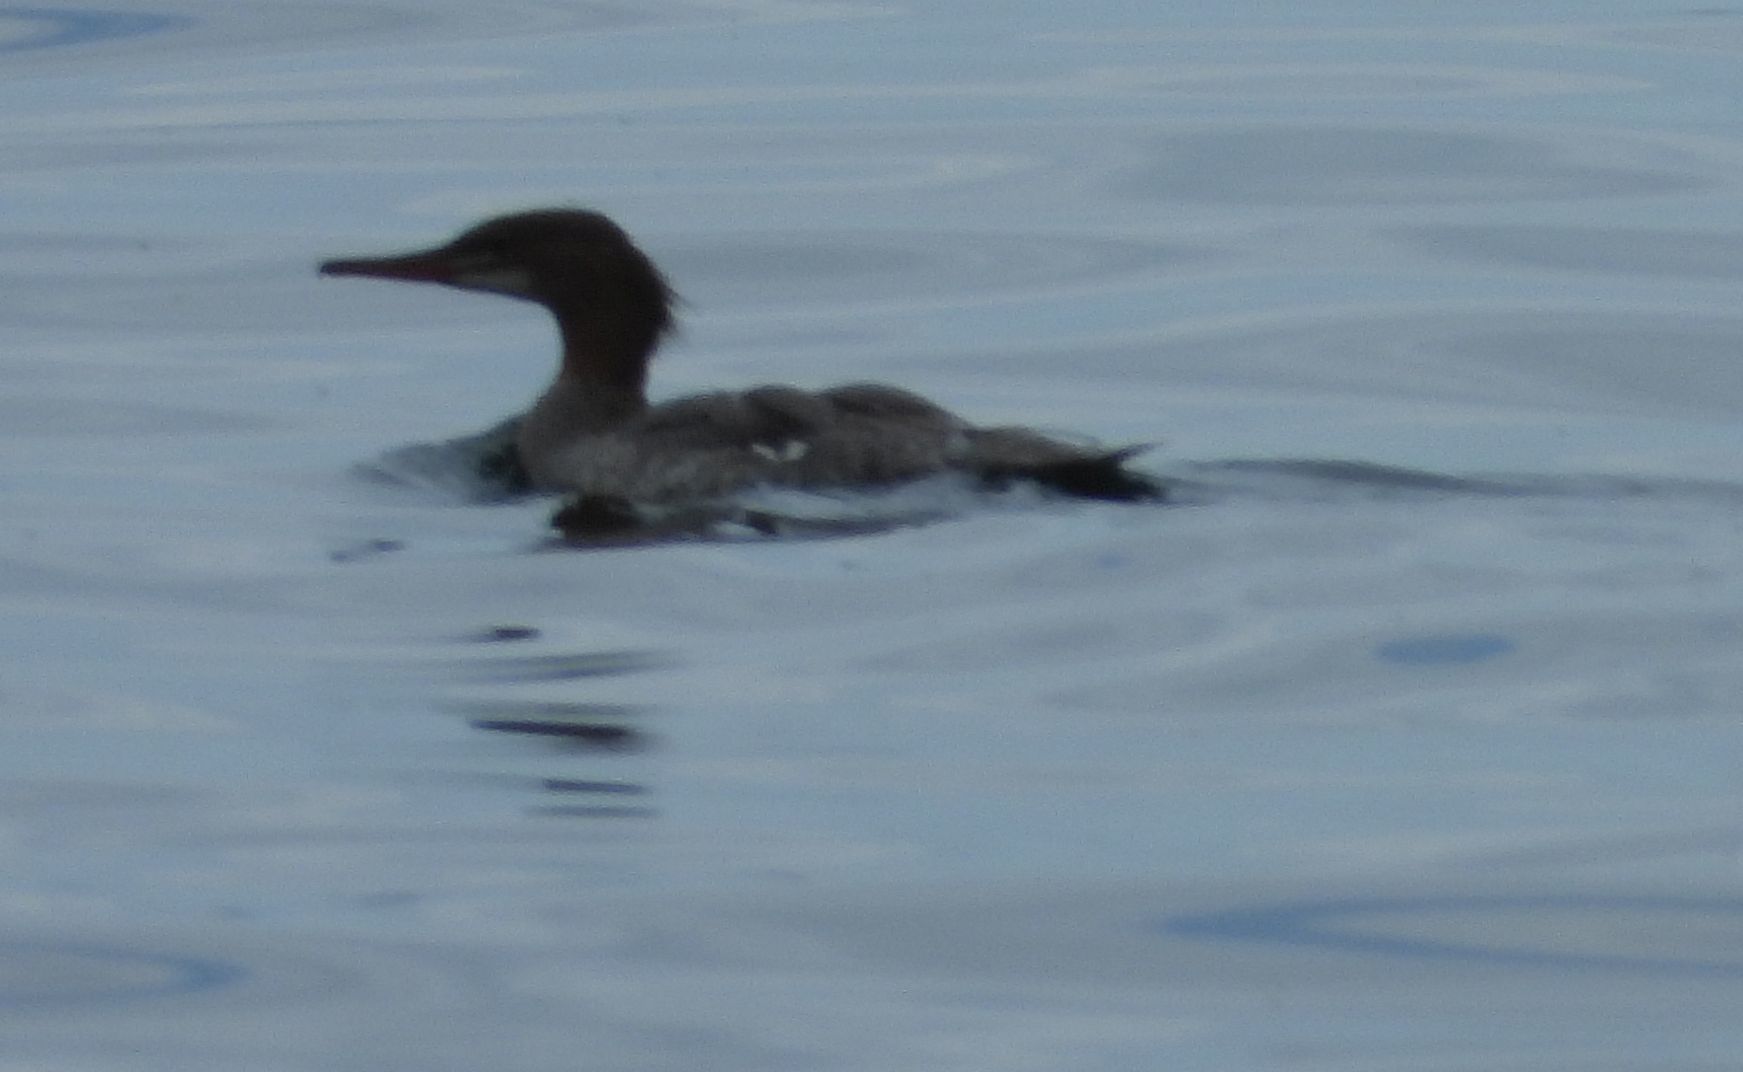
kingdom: Animalia
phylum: Chordata
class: Aves
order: Anseriformes
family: Anatidae
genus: Mergus
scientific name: Mergus merganser
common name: Common merganser
